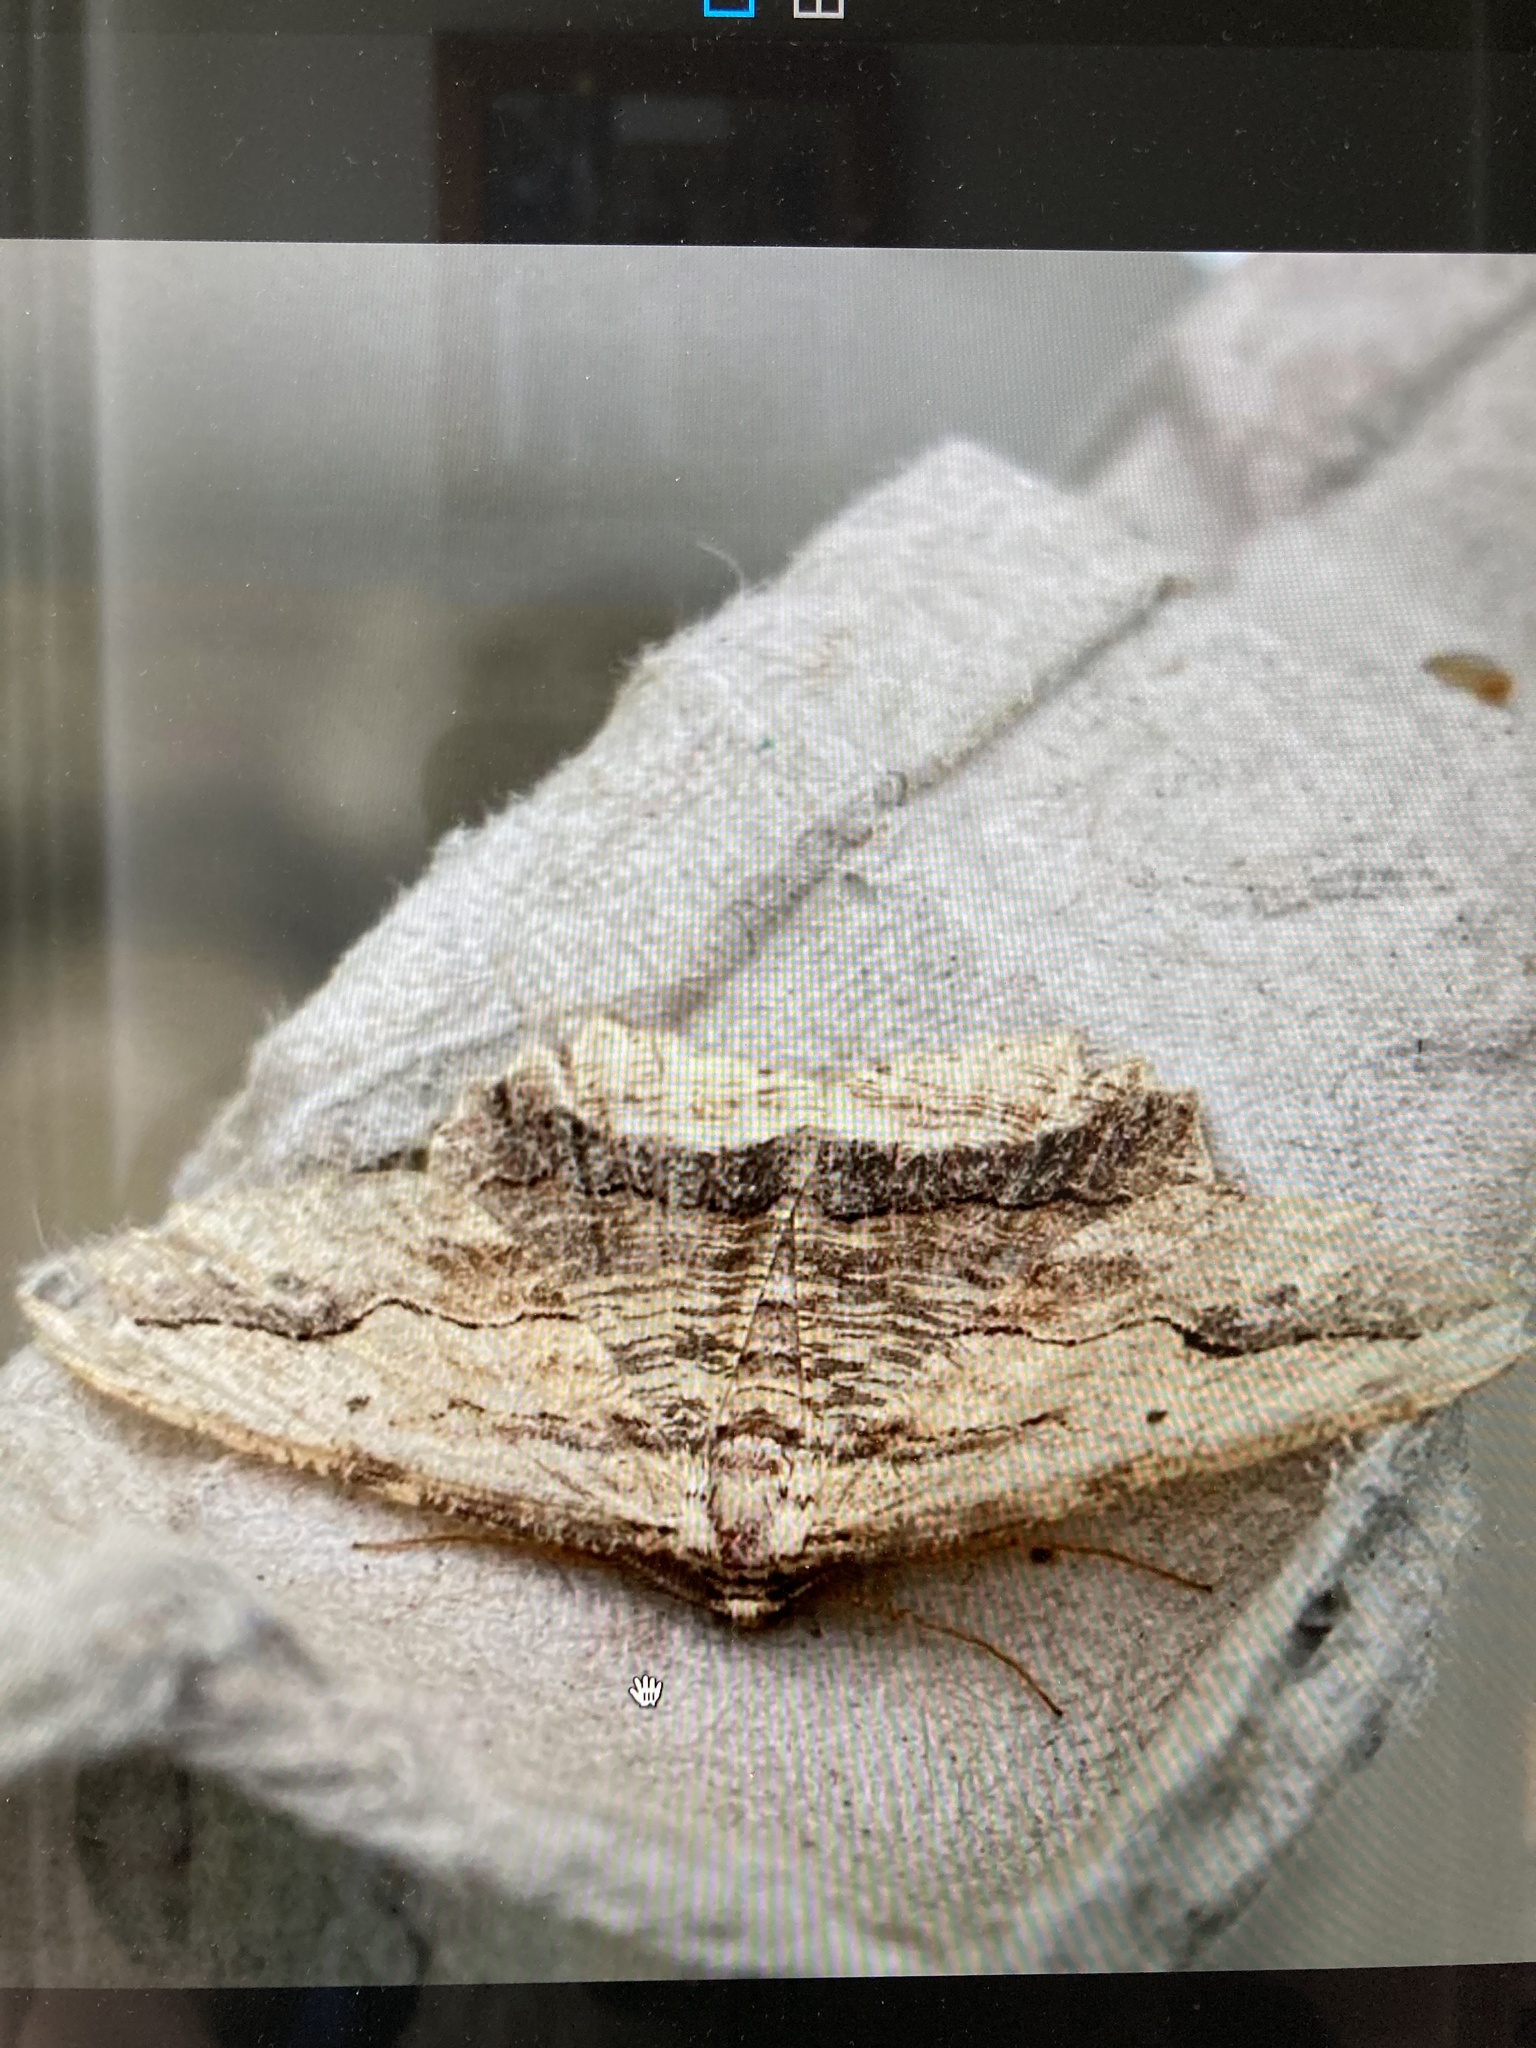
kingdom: Animalia
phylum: Arthropoda
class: Insecta
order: Lepidoptera
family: Geometridae
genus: Menophra
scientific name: Menophra abruptaria
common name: Waved umber
